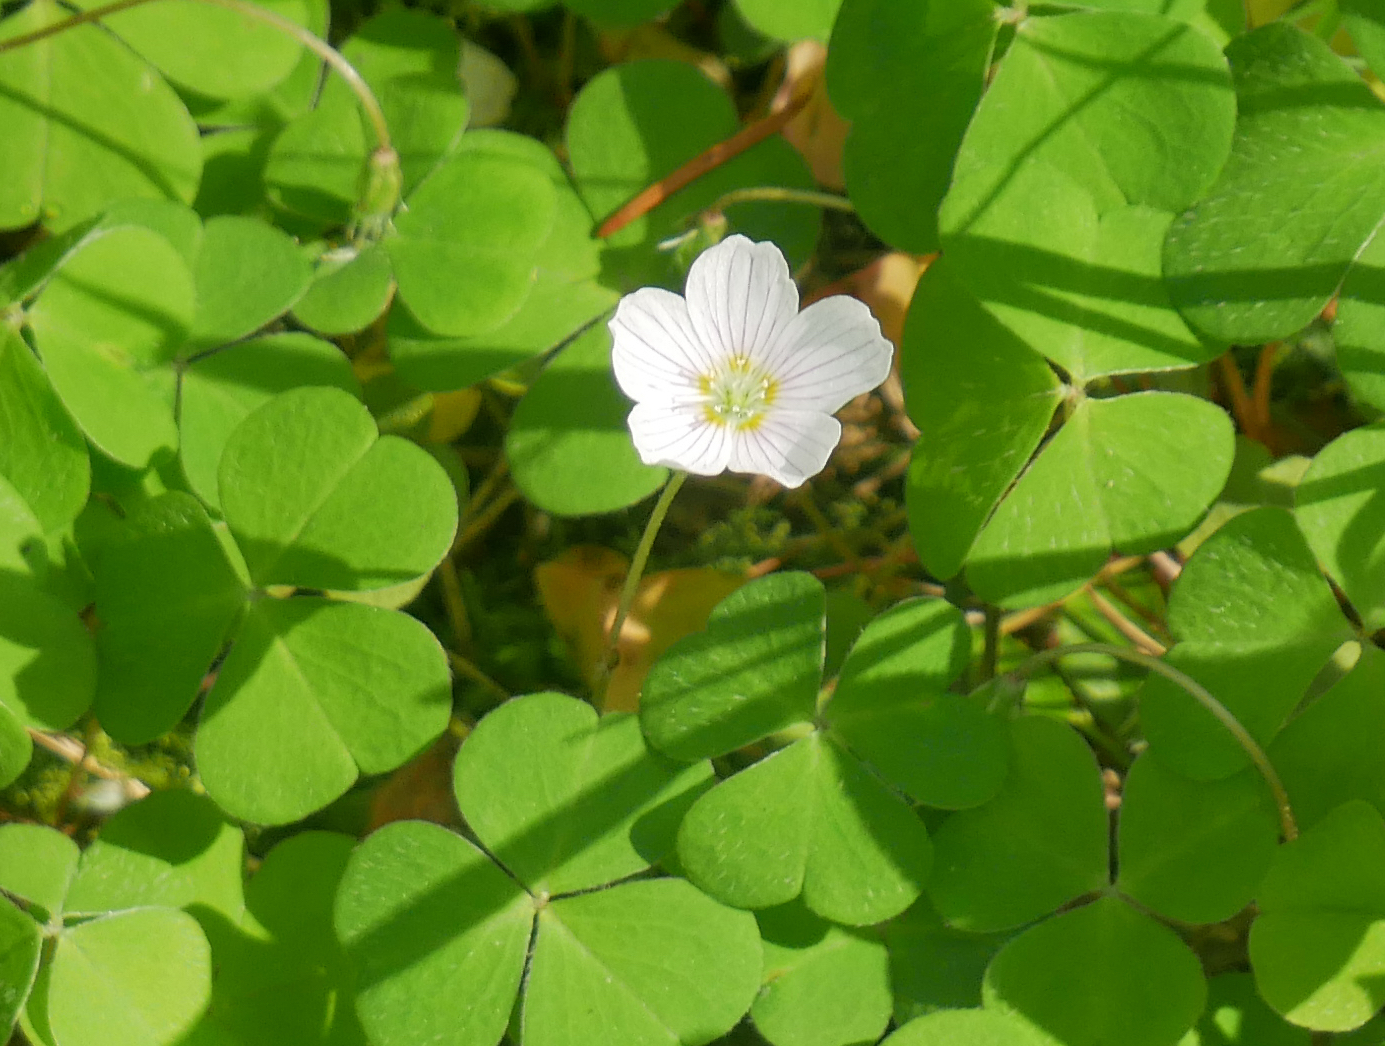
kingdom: Plantae
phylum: Tracheophyta
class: Magnoliopsida
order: Oxalidales
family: Oxalidaceae
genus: Oxalis
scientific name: Oxalis acetosella
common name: Wood-sorrel
